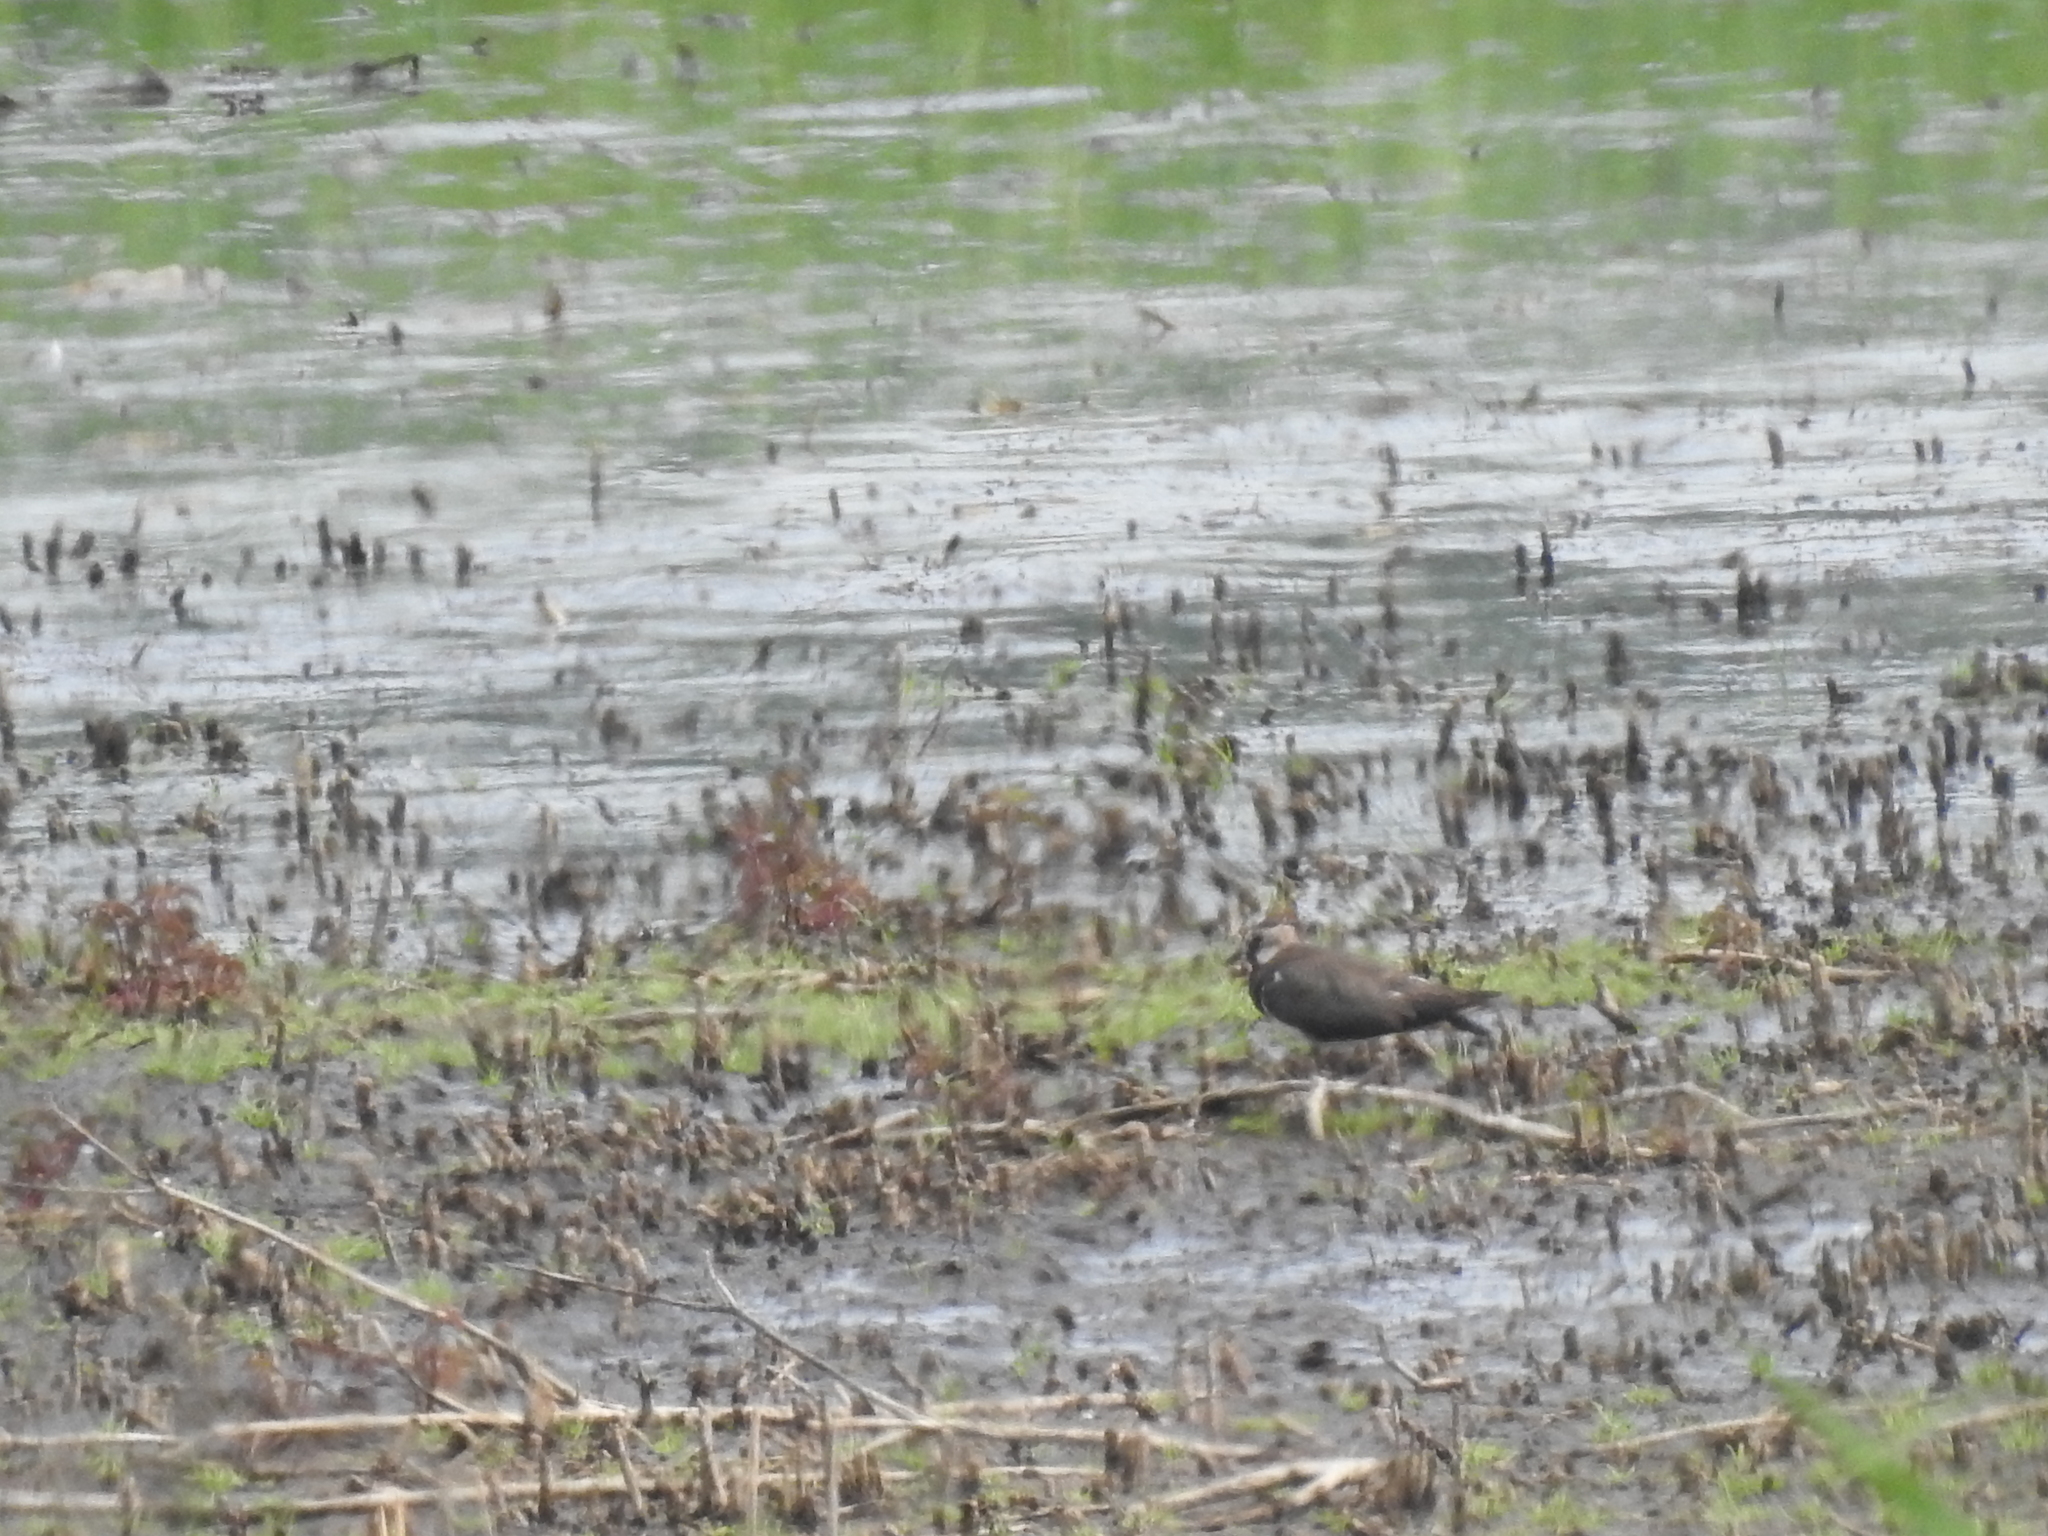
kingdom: Animalia
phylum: Chordata
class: Aves
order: Charadriiformes
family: Charadriidae
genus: Vanellus
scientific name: Vanellus vanellus
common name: Northern lapwing
